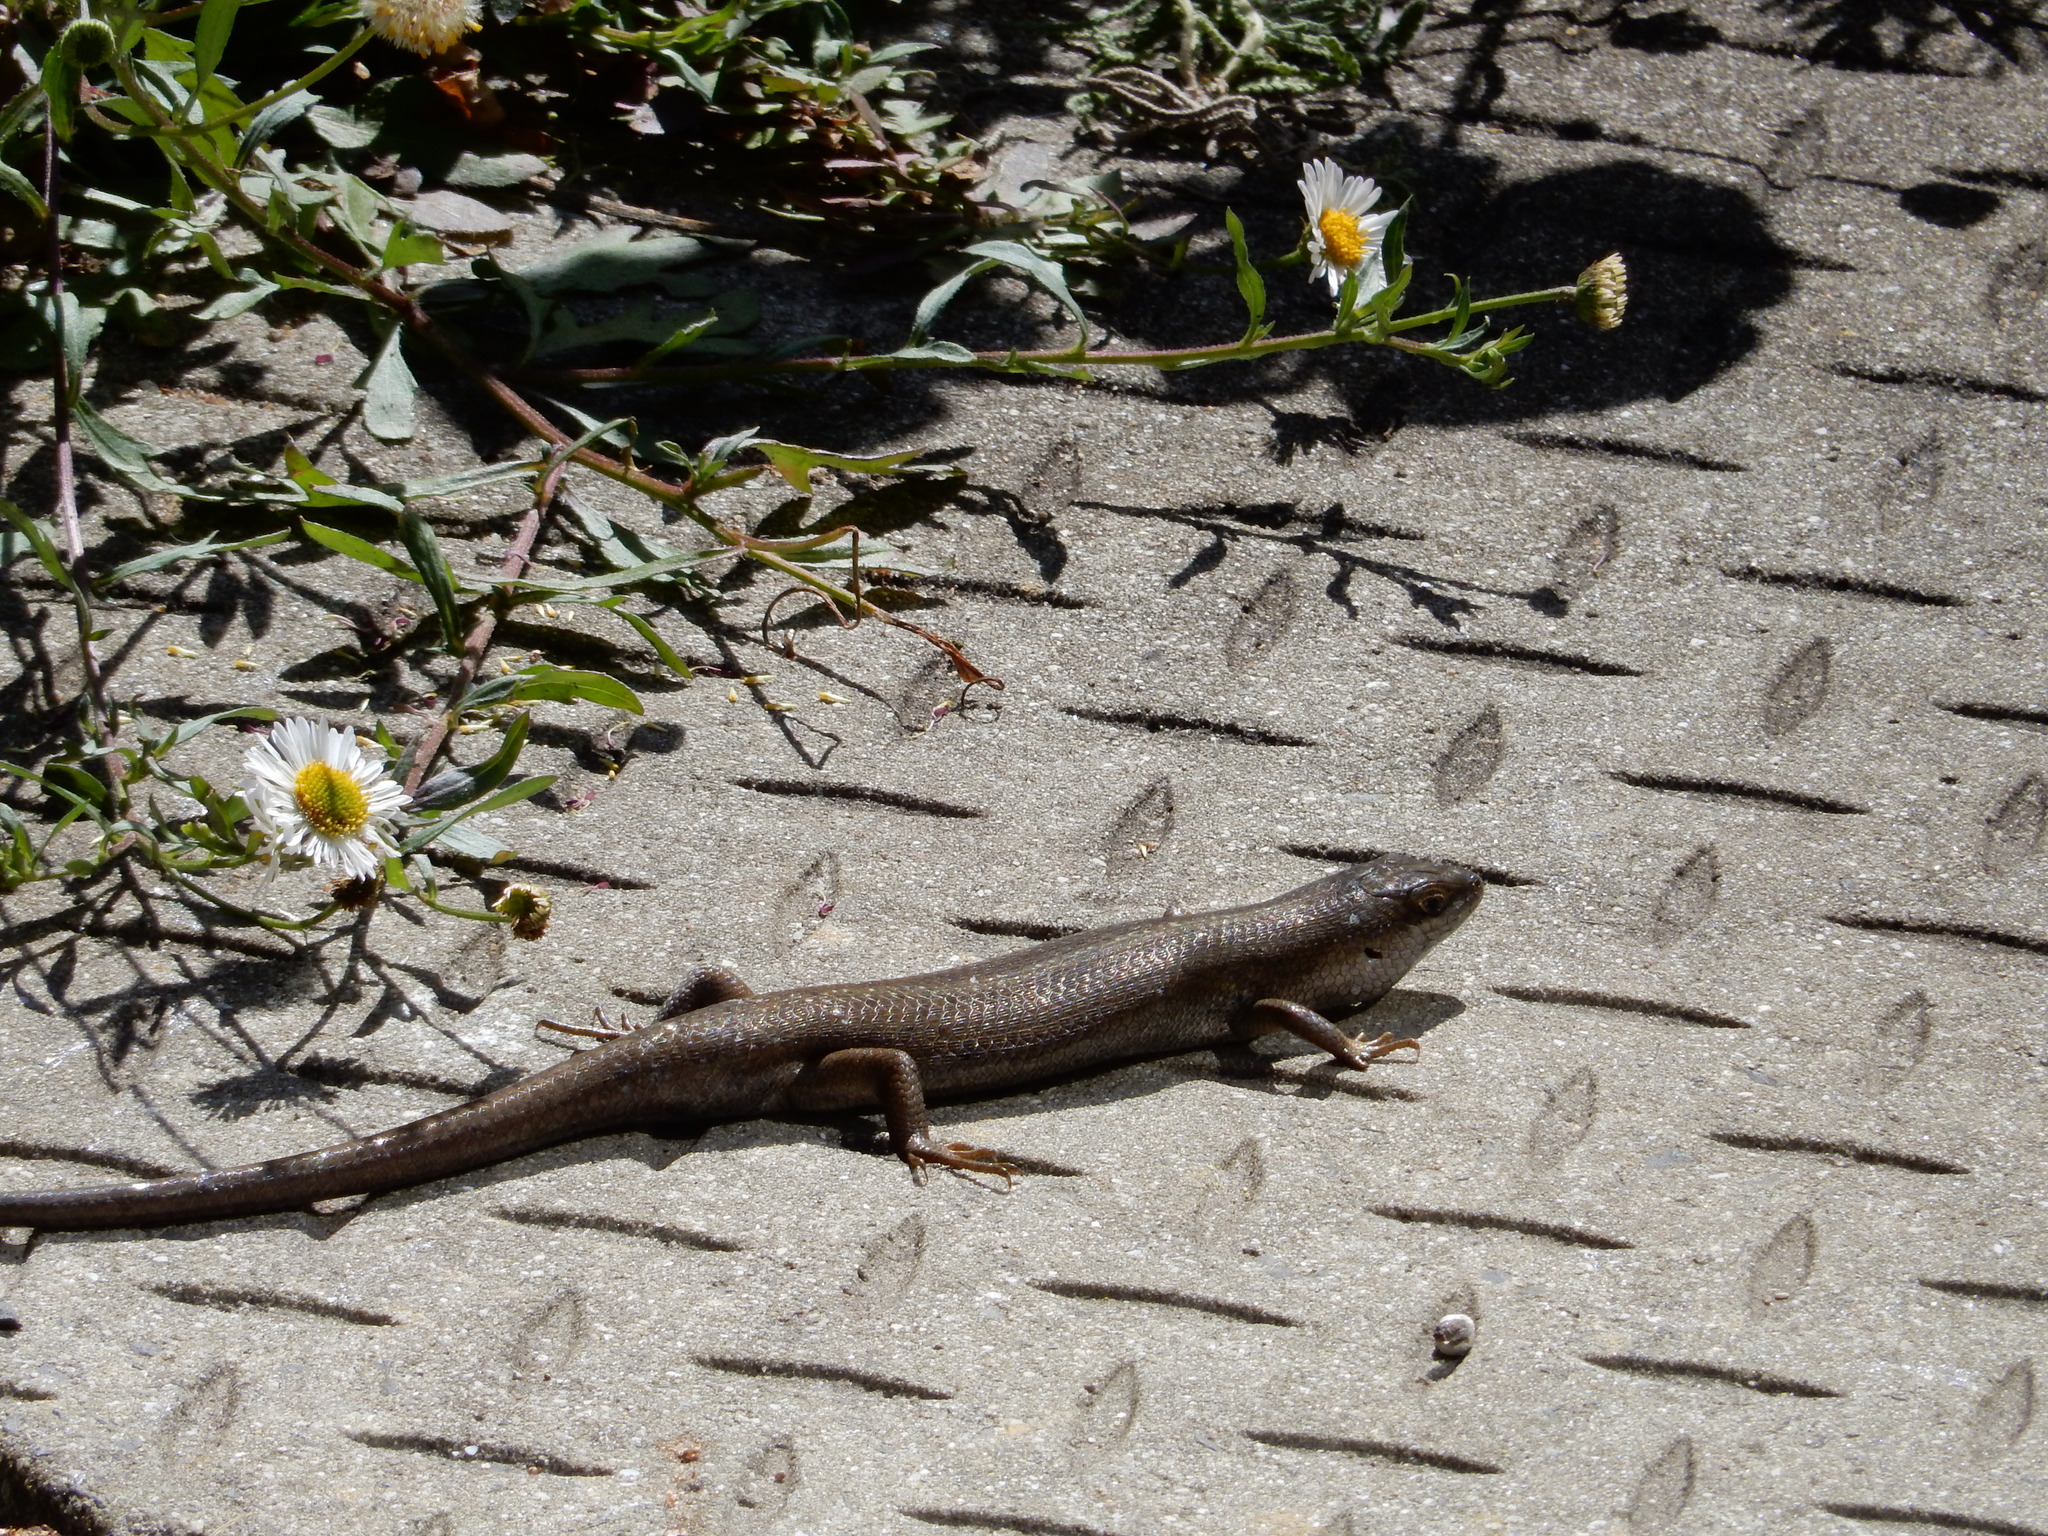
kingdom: Animalia
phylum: Chordata
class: Squamata
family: Scincidae
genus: Trachylepis
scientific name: Trachylepis capensis
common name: Cape skink
